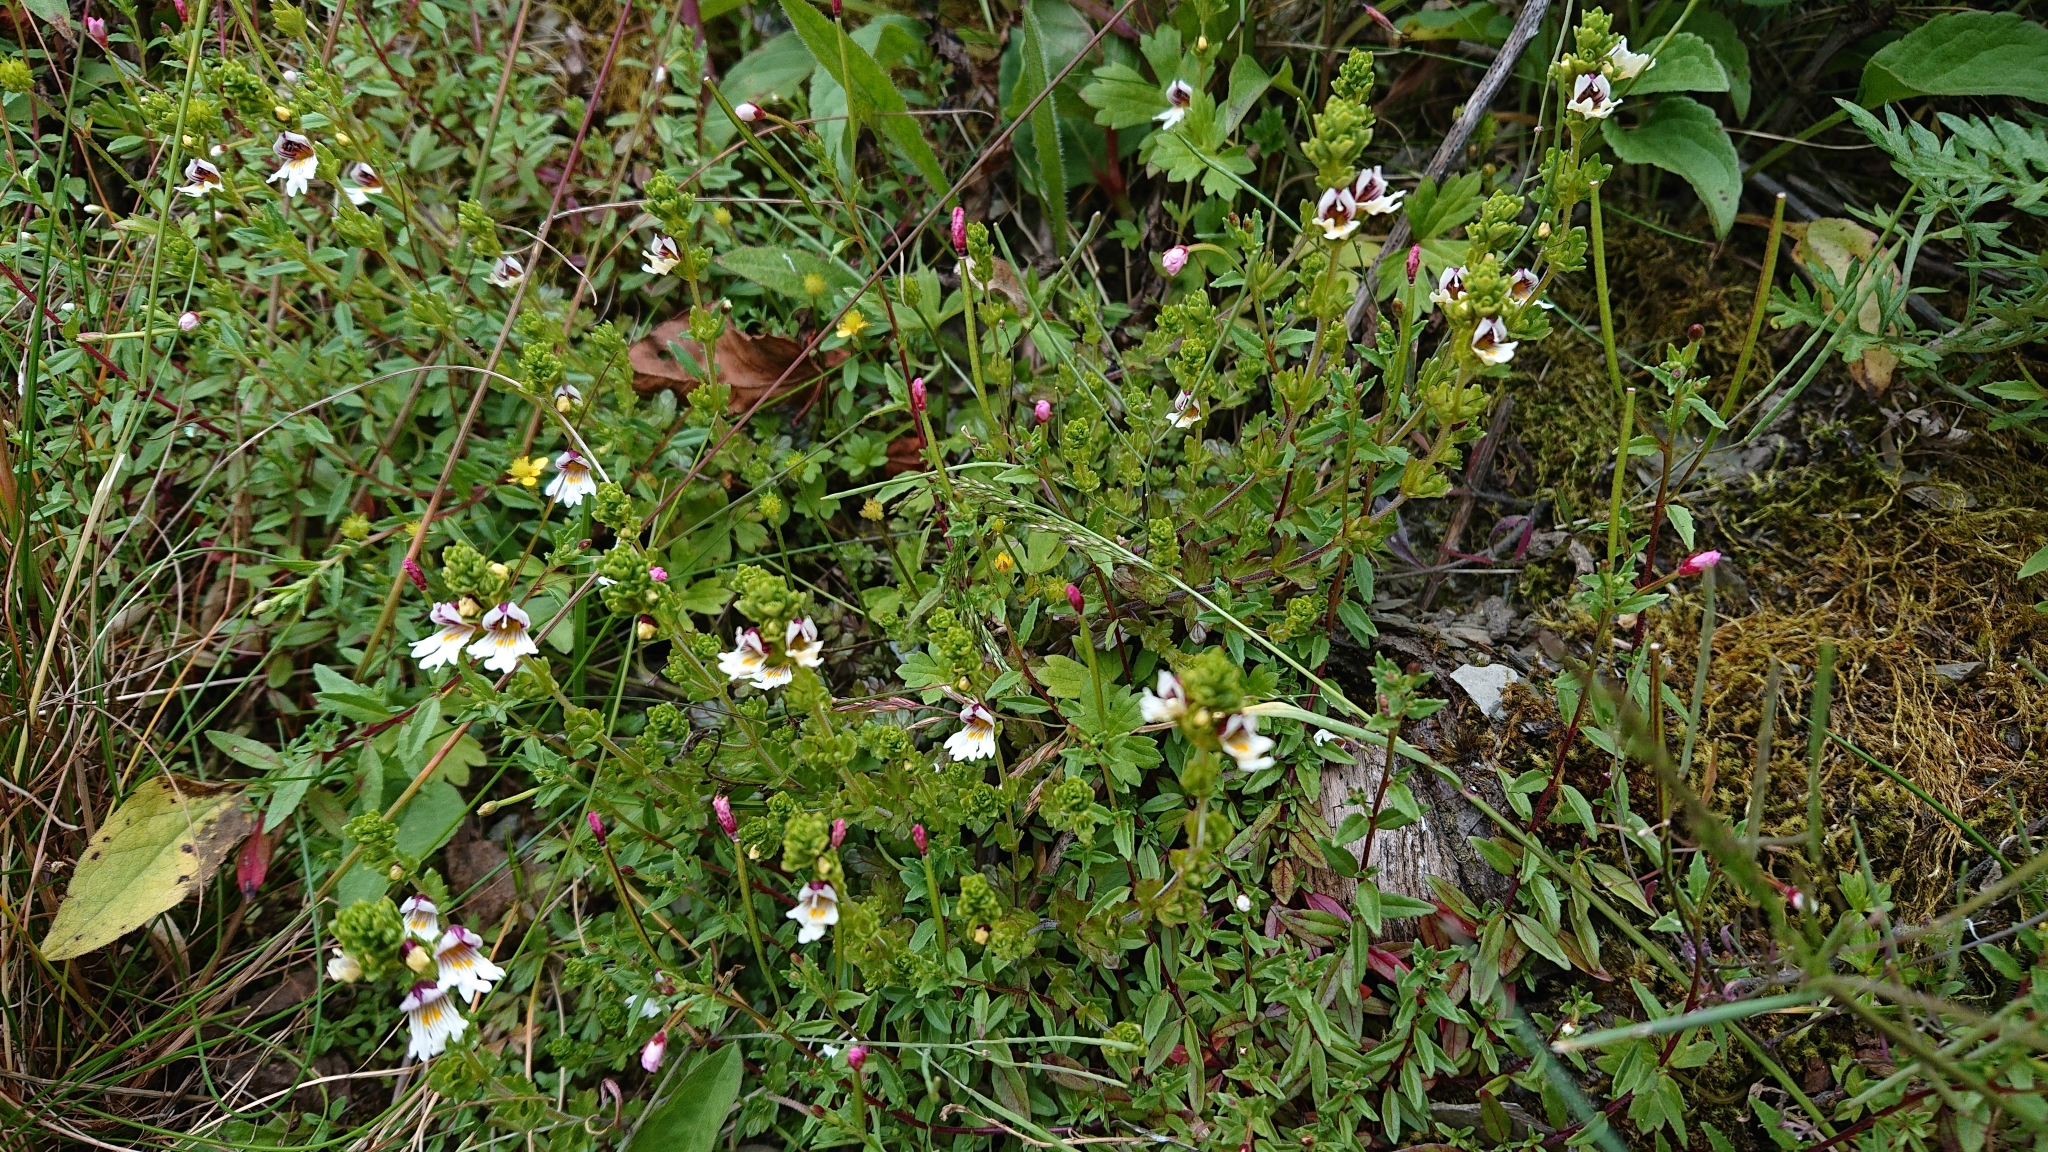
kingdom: Plantae
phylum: Tracheophyta
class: Magnoliopsida
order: Lamiales
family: Orobanchaceae
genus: Euphrasia
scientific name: Euphrasia transmorrisonensis
